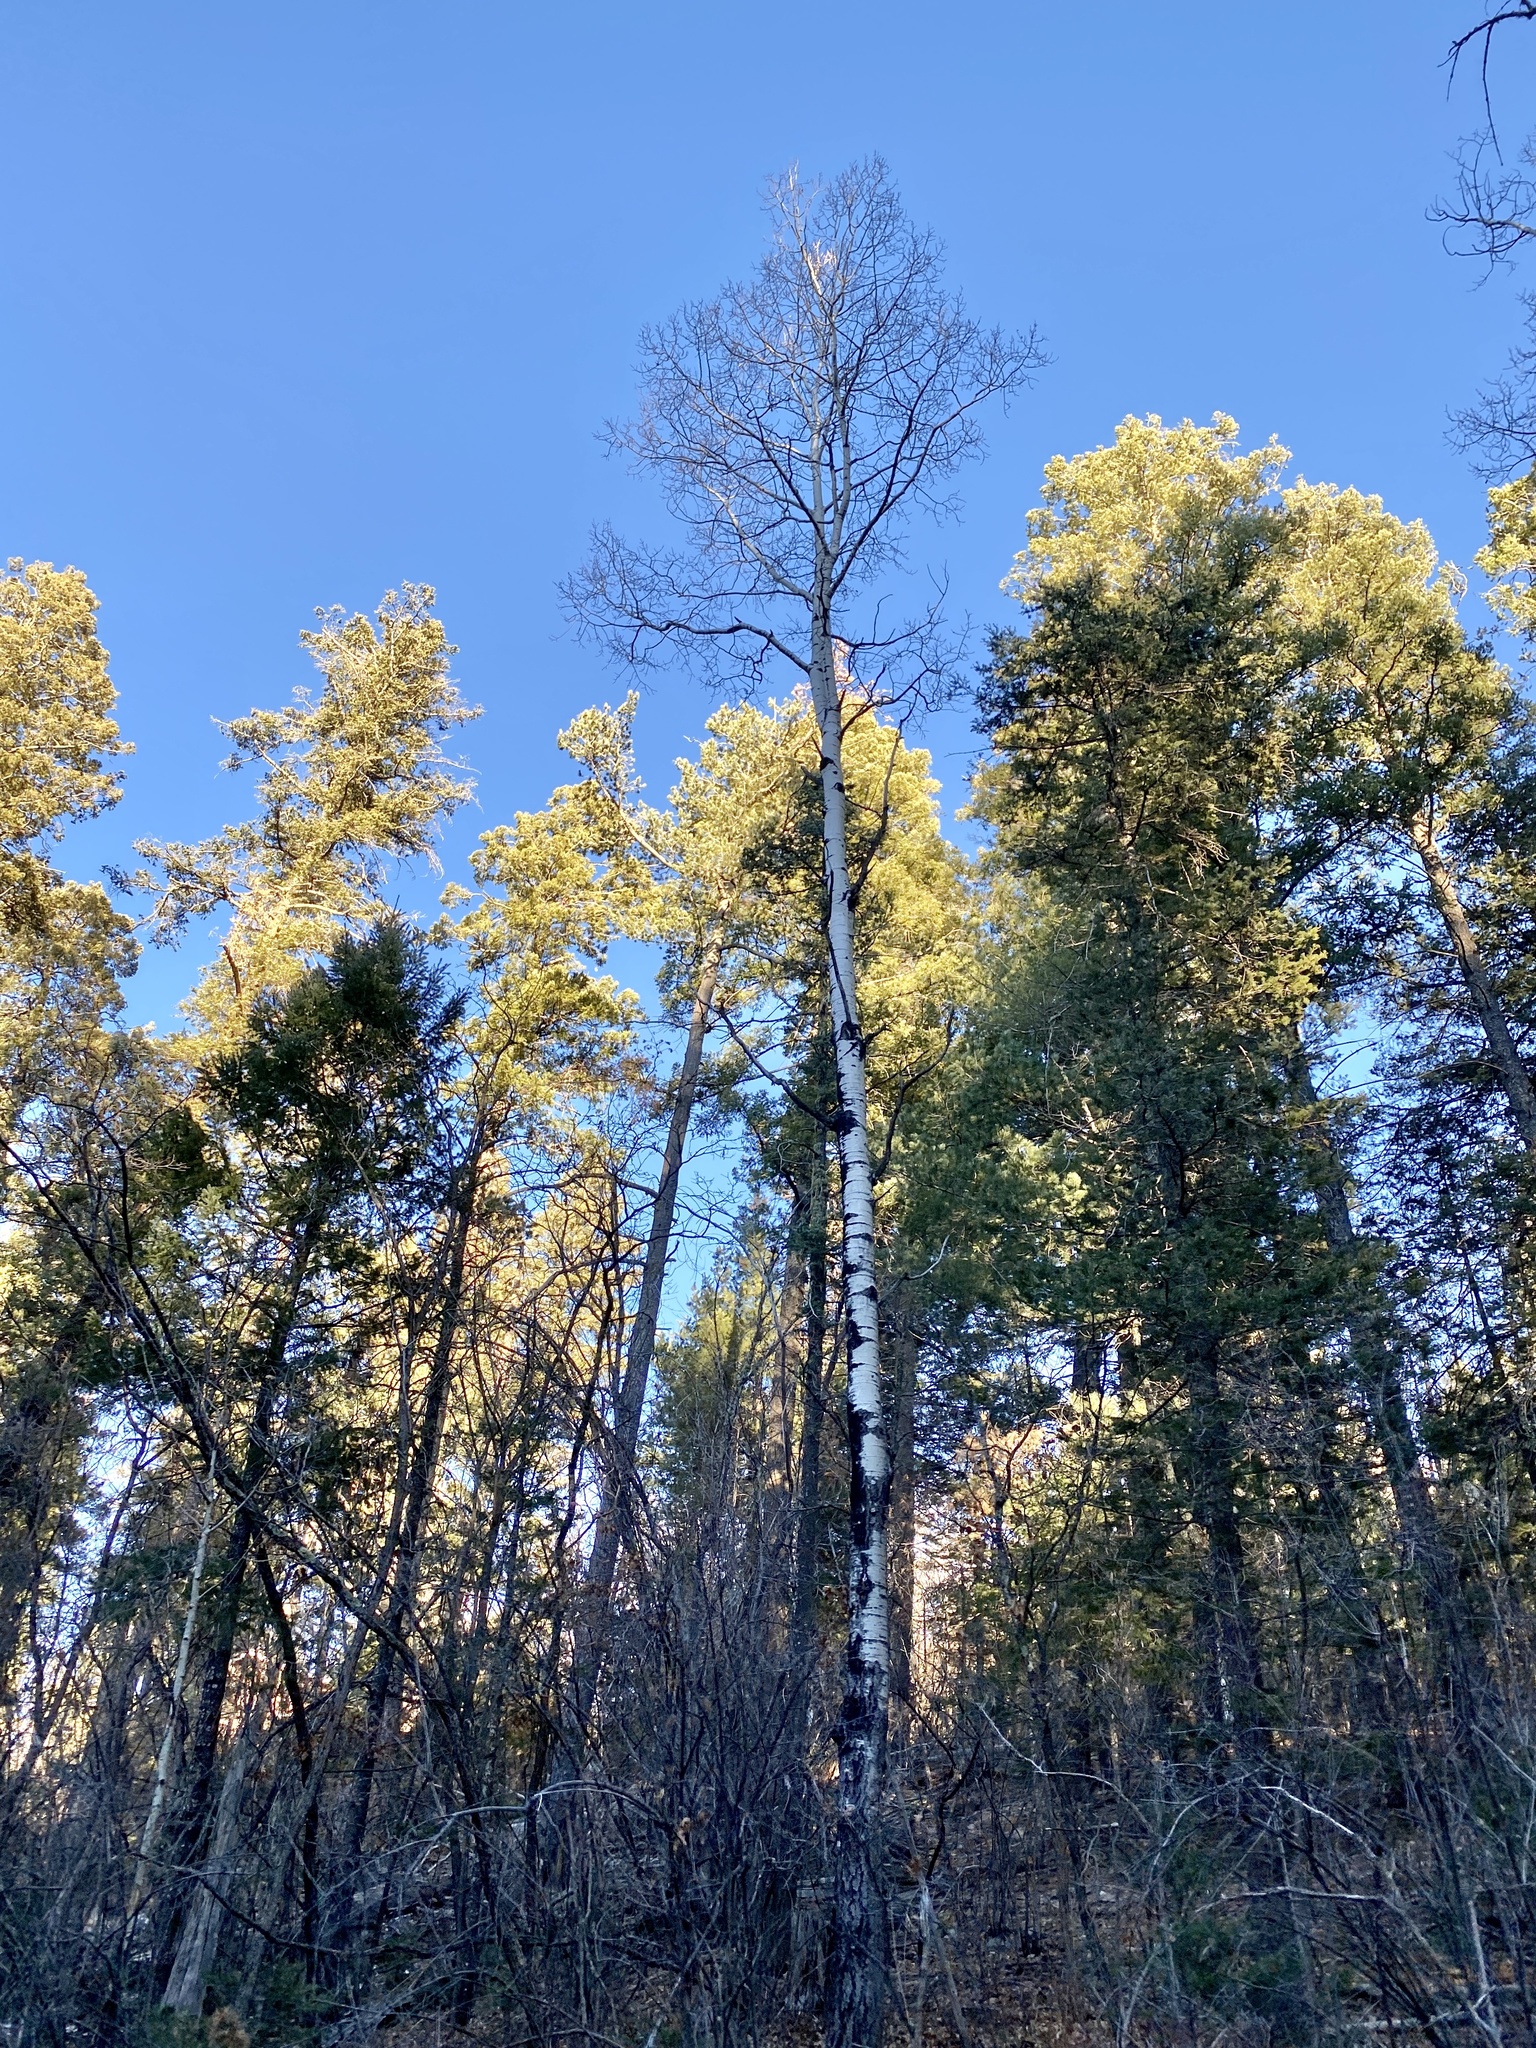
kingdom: Plantae
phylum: Tracheophyta
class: Magnoliopsida
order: Malpighiales
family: Salicaceae
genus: Populus
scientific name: Populus tremuloides
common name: Quaking aspen
